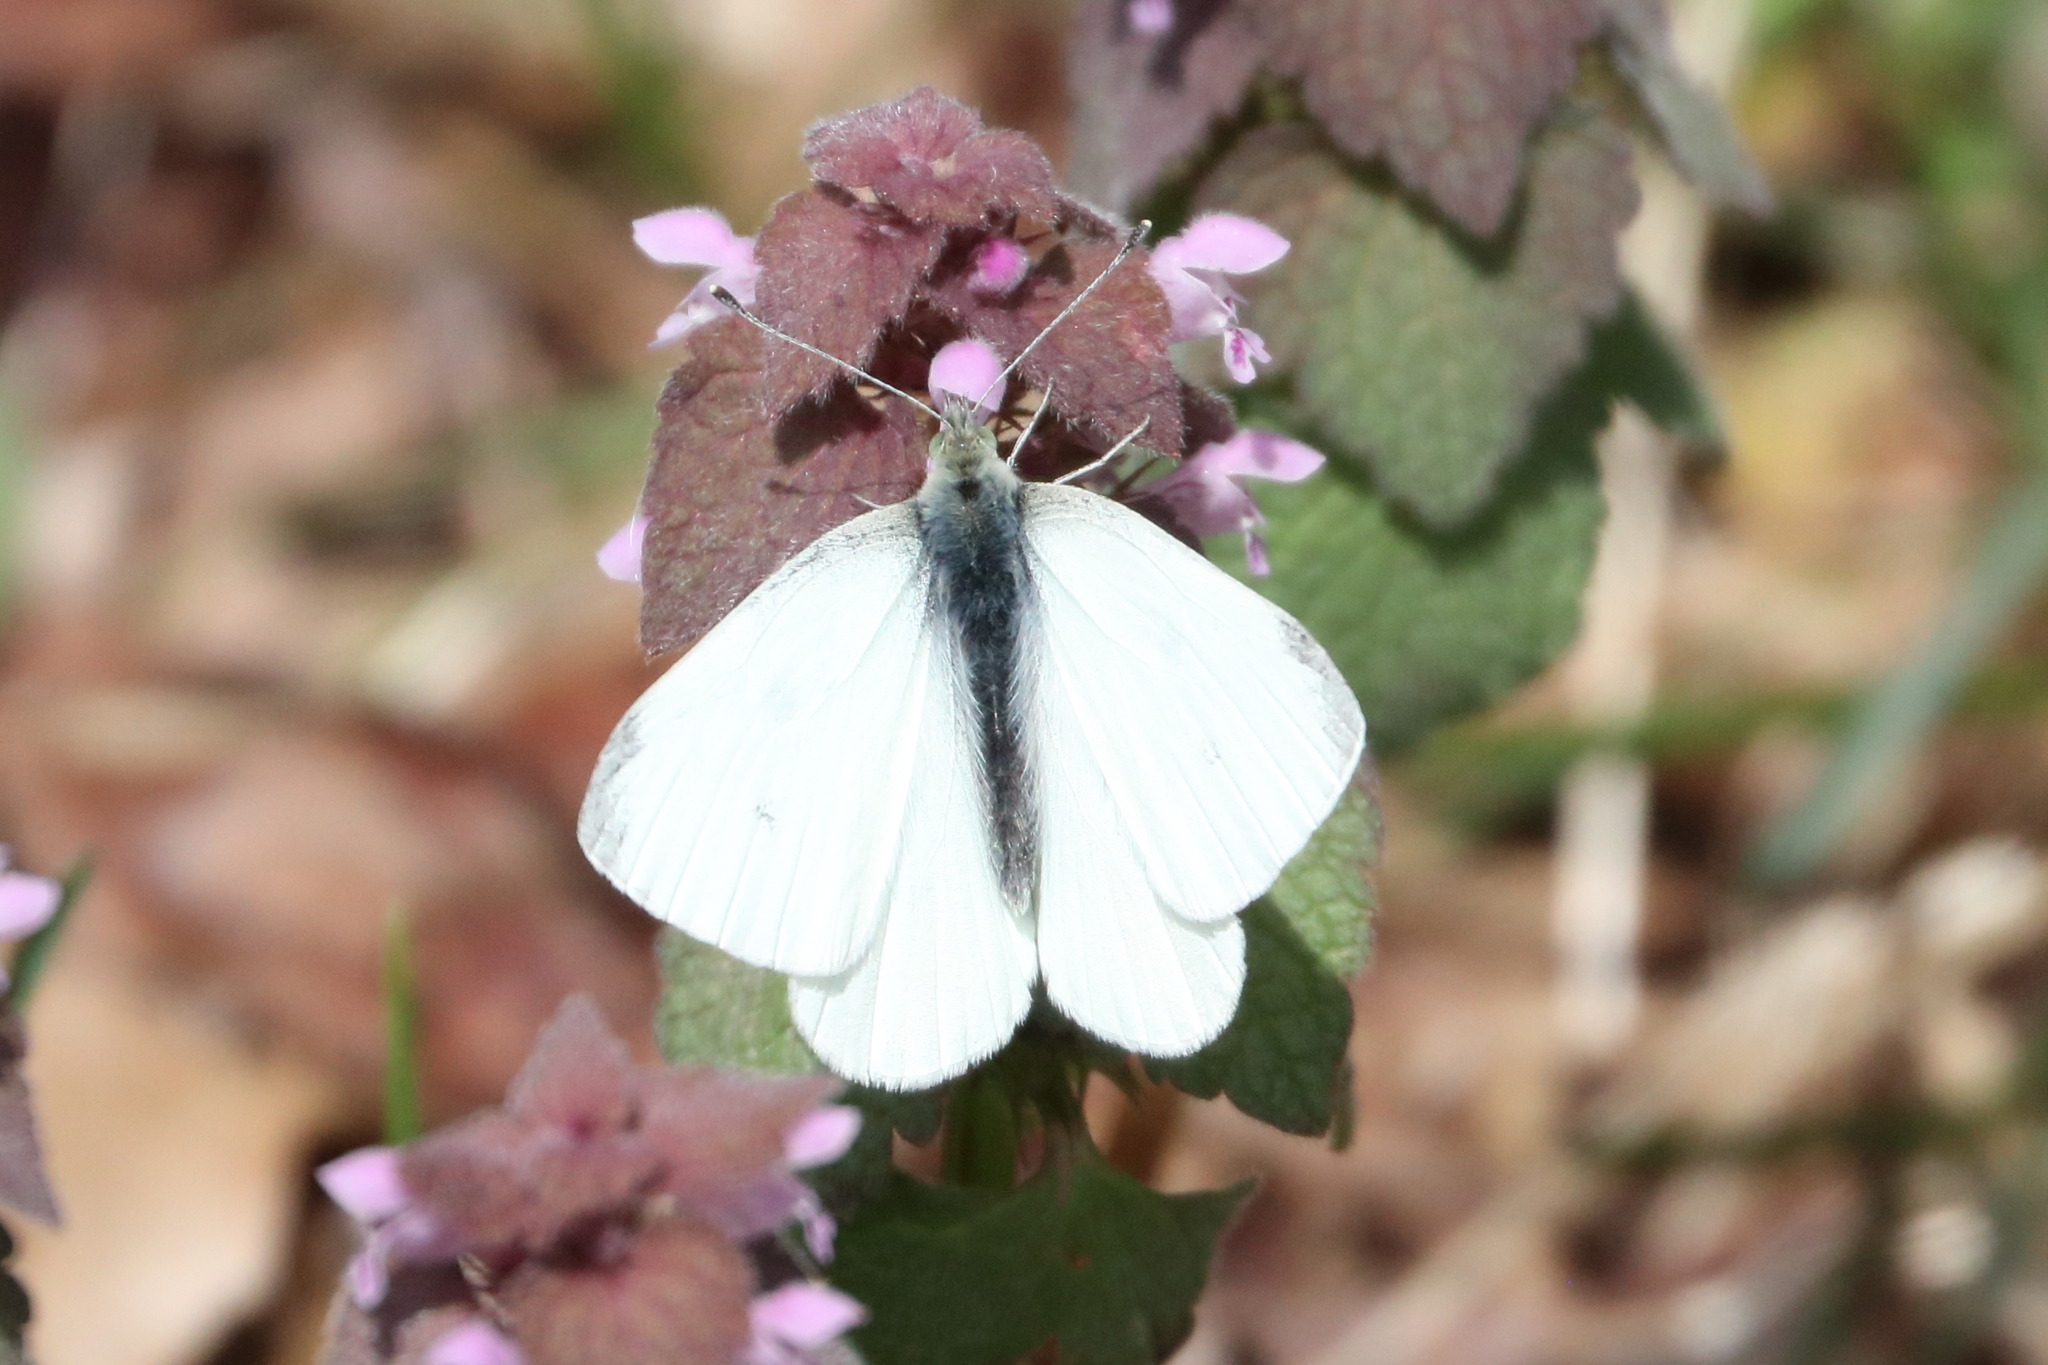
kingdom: Animalia
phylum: Arthropoda
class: Insecta
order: Lepidoptera
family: Pieridae
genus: Pieris
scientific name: Pieris rapae
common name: Small white
